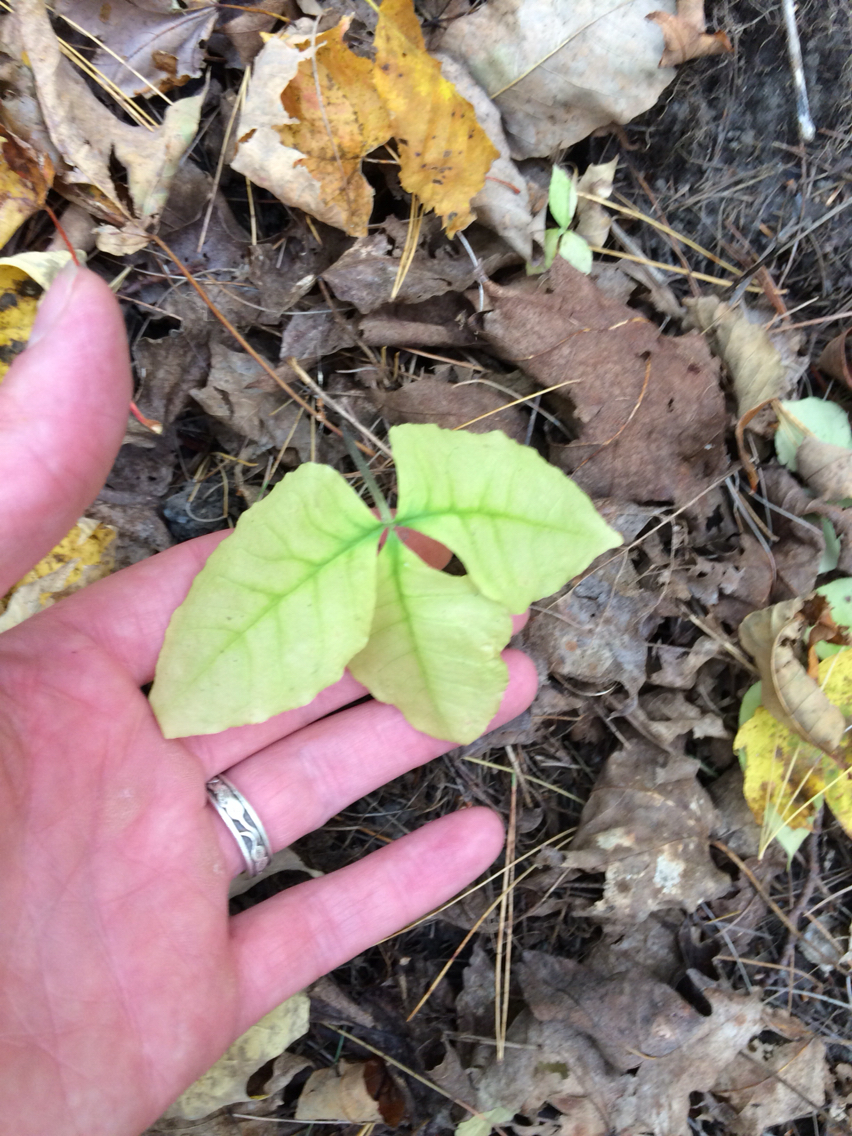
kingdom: Plantae
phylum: Tracheophyta
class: Liliopsida
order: Alismatales
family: Araceae
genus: Arisaema
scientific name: Arisaema triphyllum
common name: Jack-in-the-pulpit
